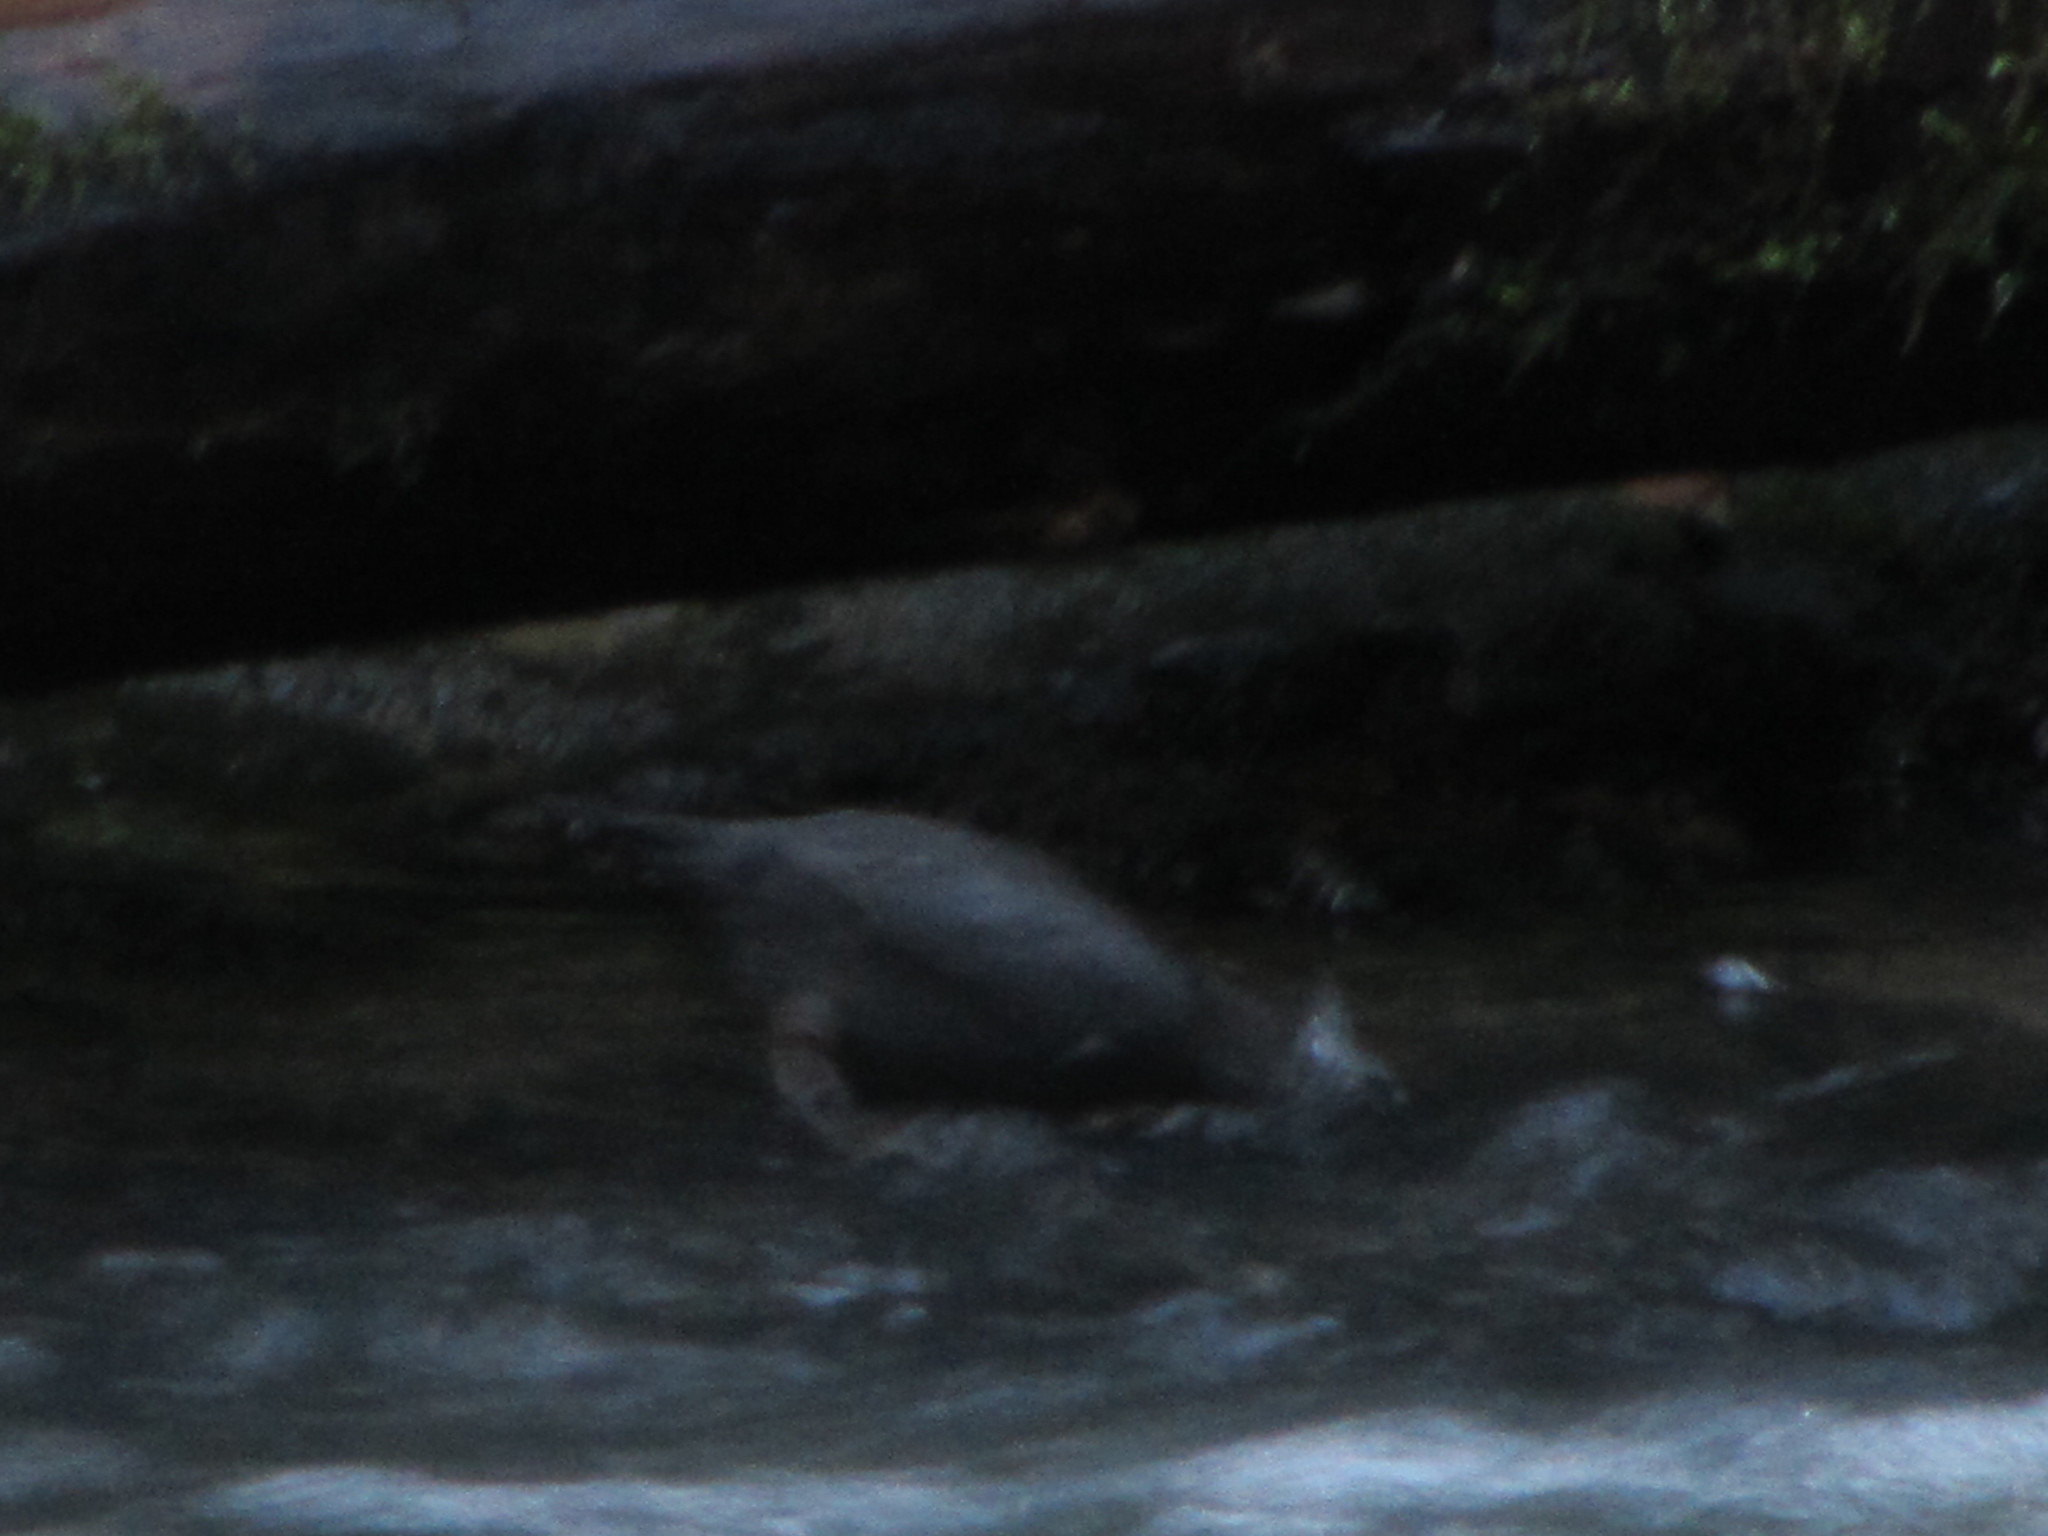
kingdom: Animalia
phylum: Chordata
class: Aves
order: Passeriformes
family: Cinclidae
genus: Cinclus
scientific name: Cinclus mexicanus
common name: American dipper
